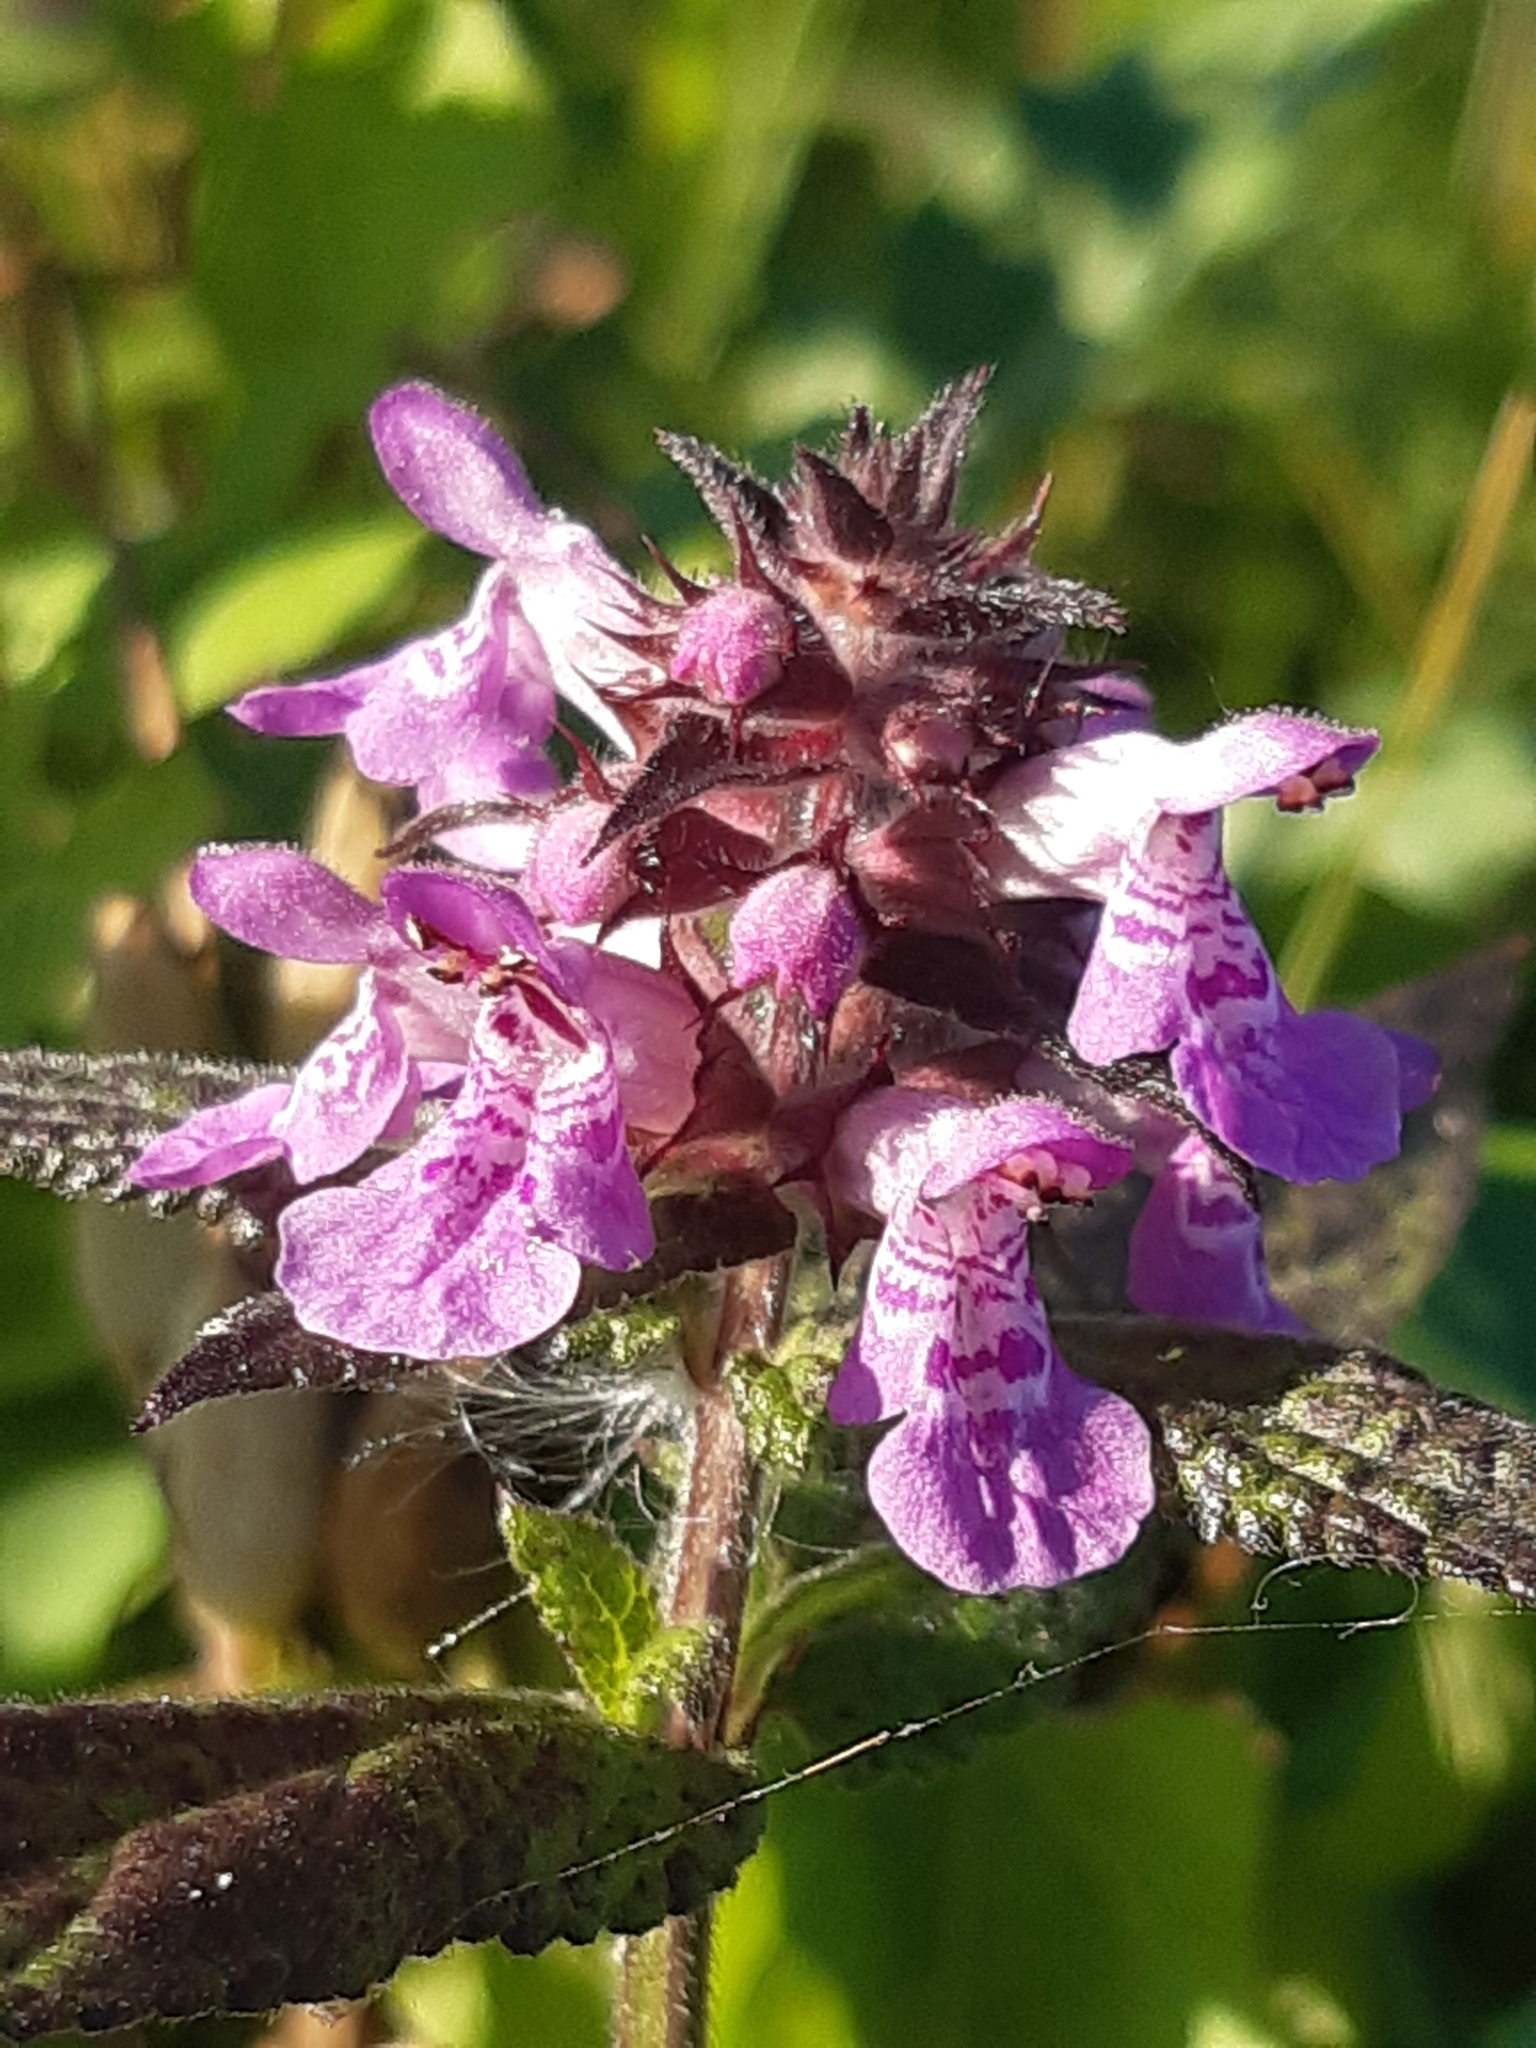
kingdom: Plantae
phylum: Tracheophyta
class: Magnoliopsida
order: Lamiales
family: Lamiaceae
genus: Stachys
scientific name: Stachys palustris
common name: Marsh woundwort
